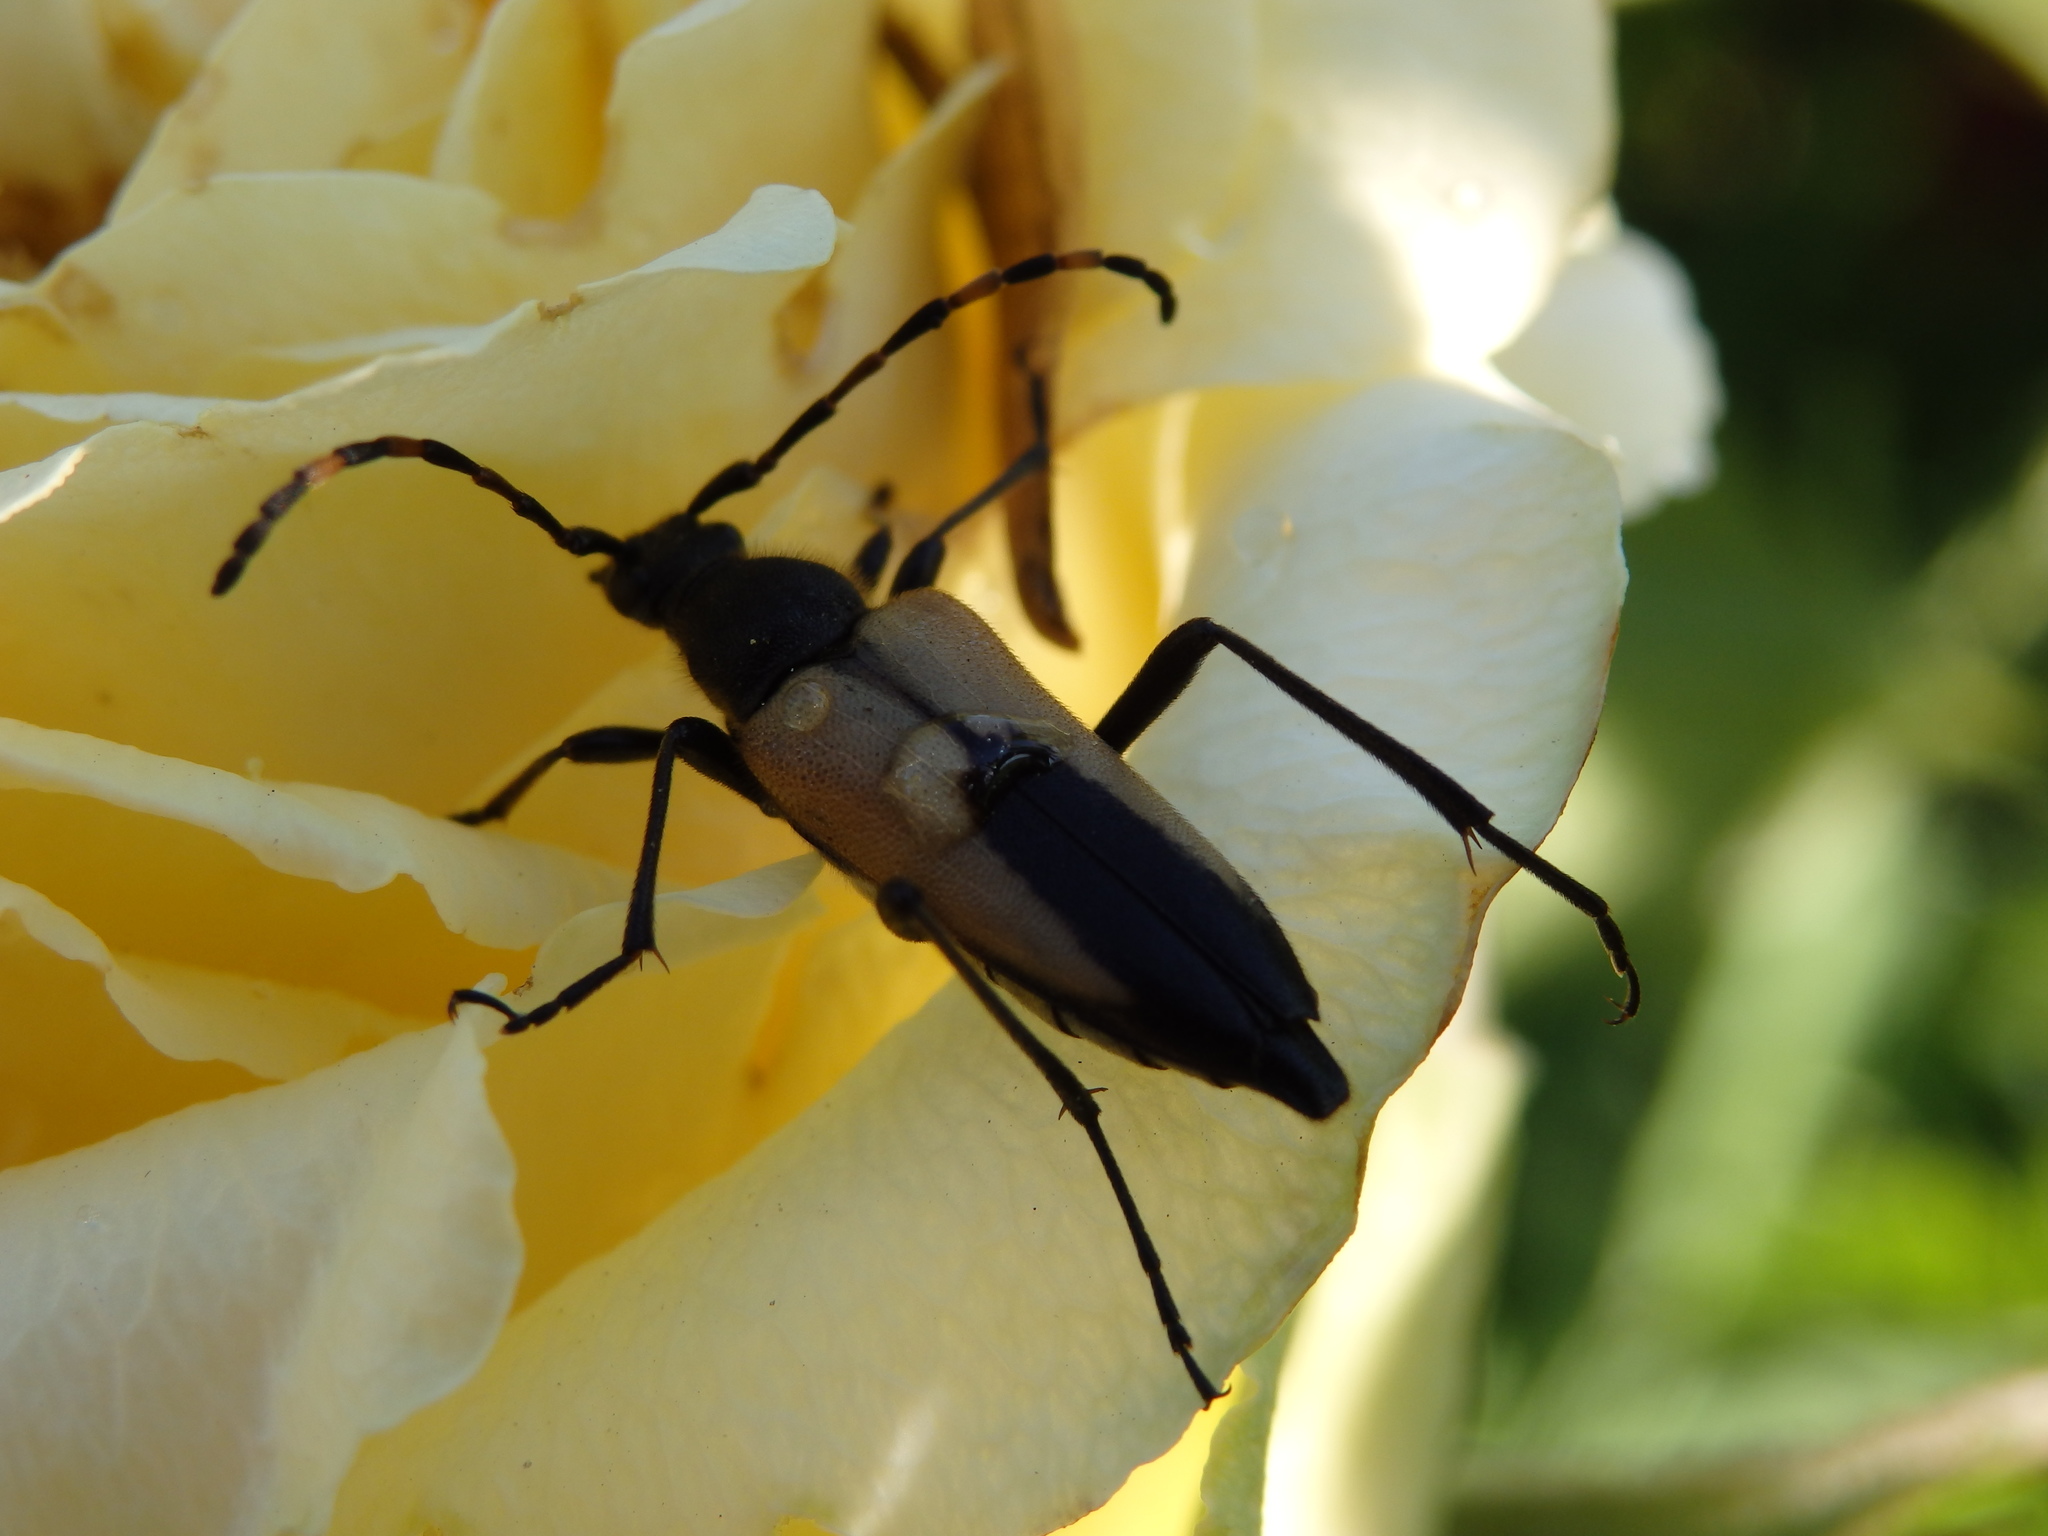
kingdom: Animalia
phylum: Arthropoda
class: Insecta
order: Coleoptera
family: Cerambycidae
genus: Stictoleptura
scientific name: Stictoleptura stragulata
